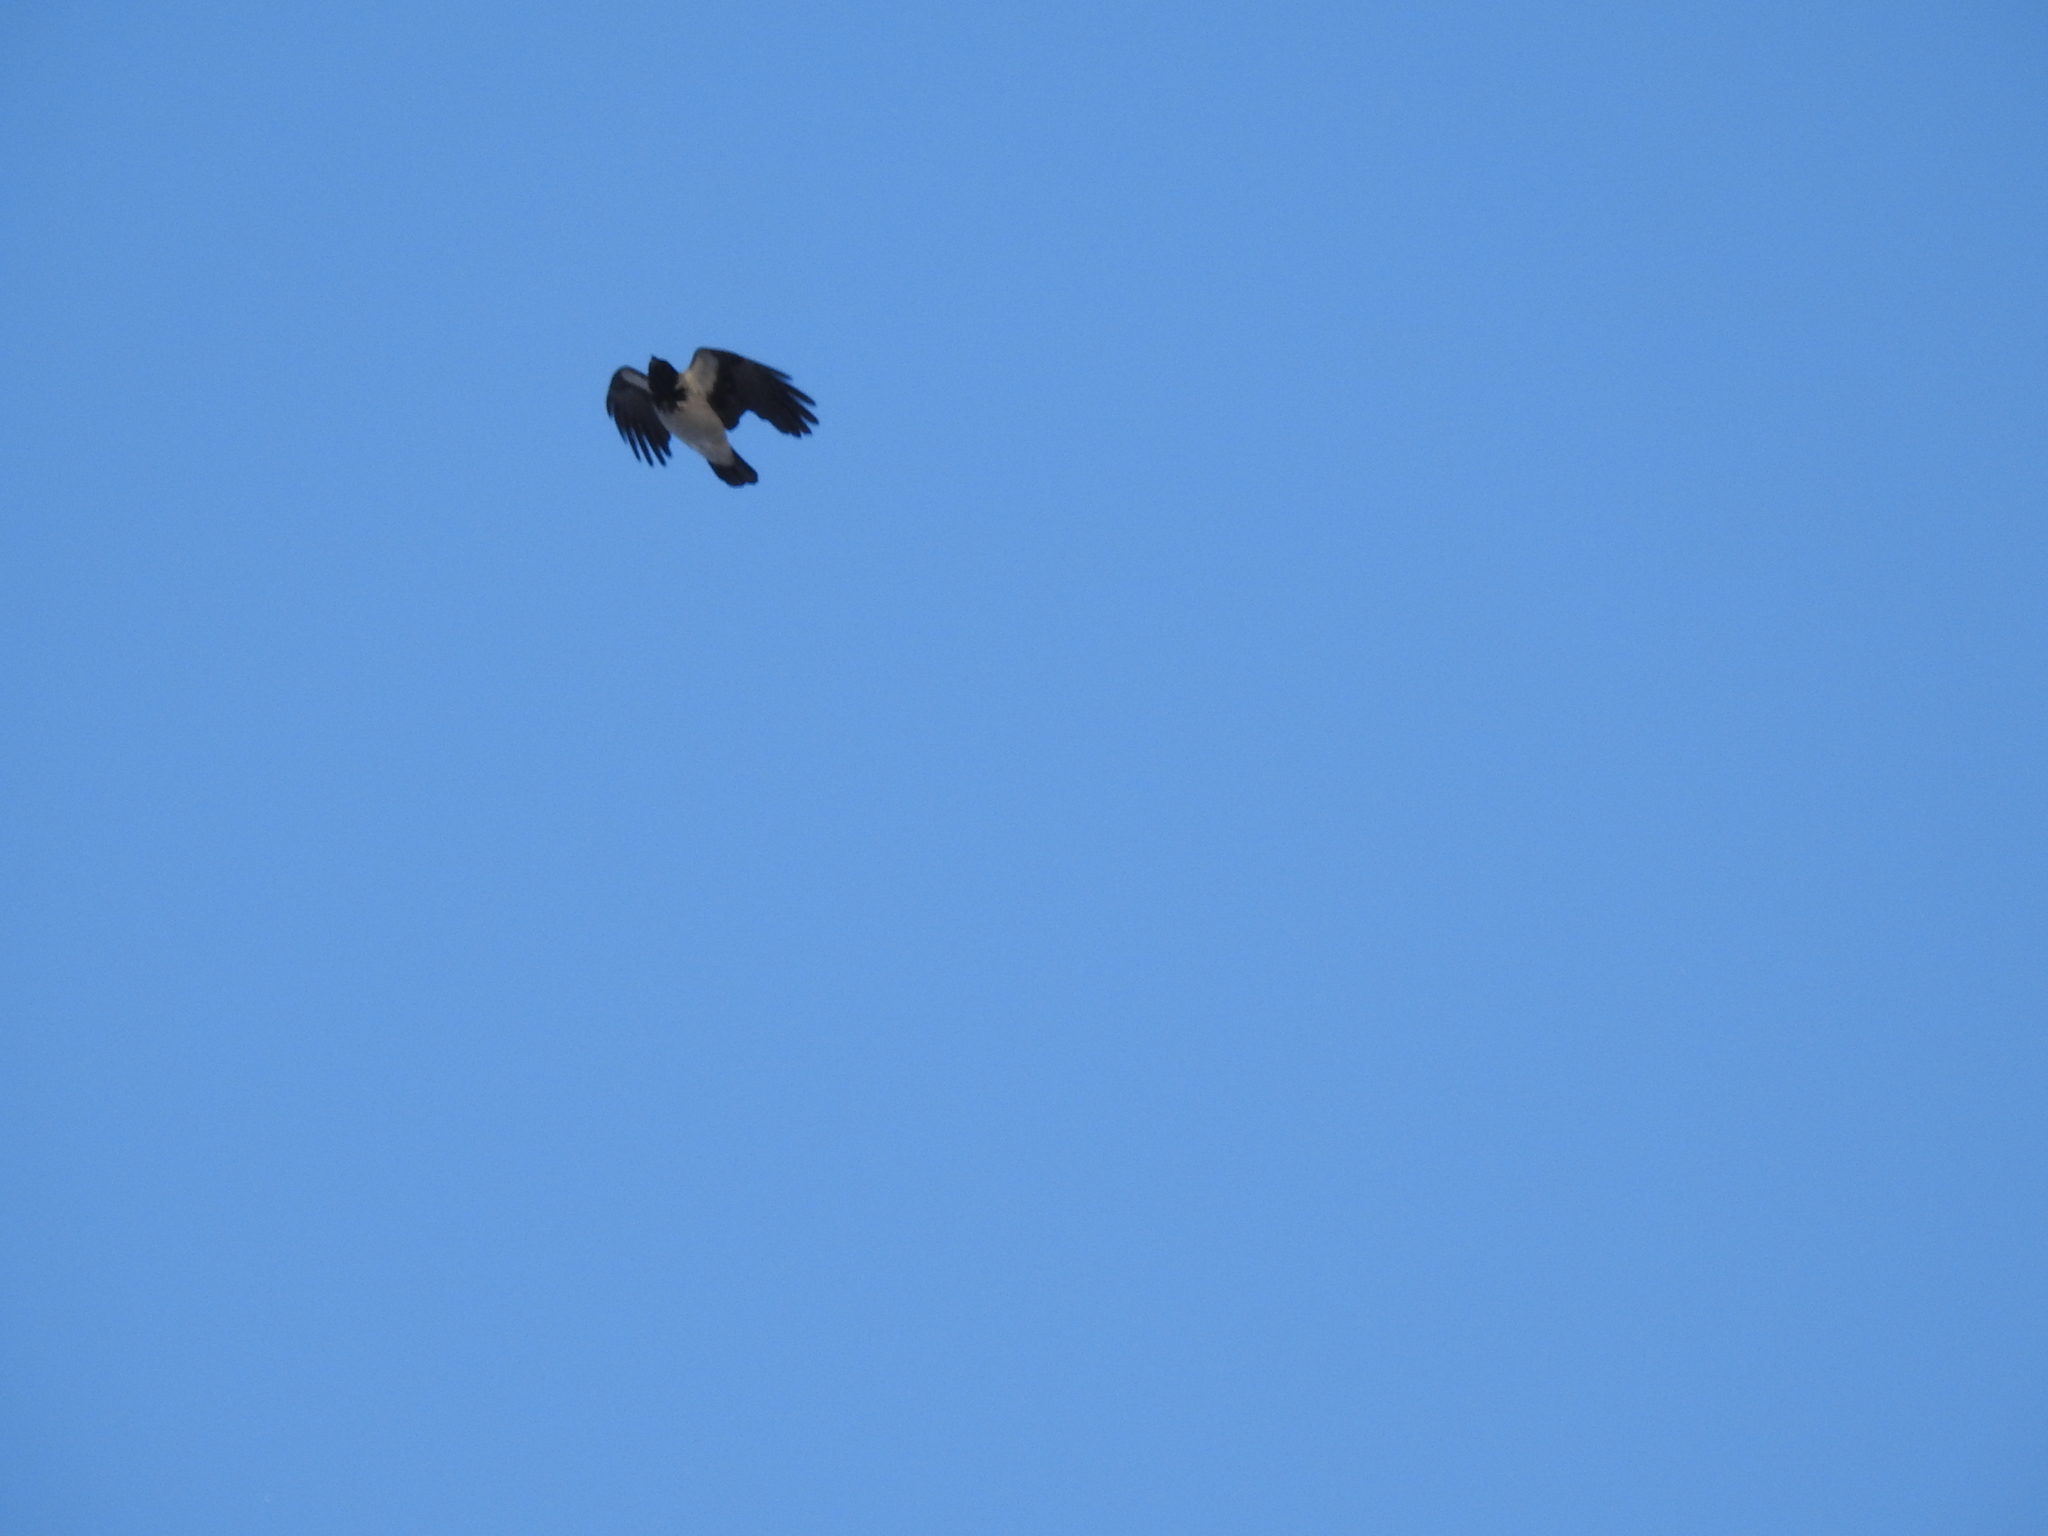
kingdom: Animalia
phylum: Chordata
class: Aves
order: Passeriformes
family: Corvidae
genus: Corvus
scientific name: Corvus cornix
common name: Hooded crow
